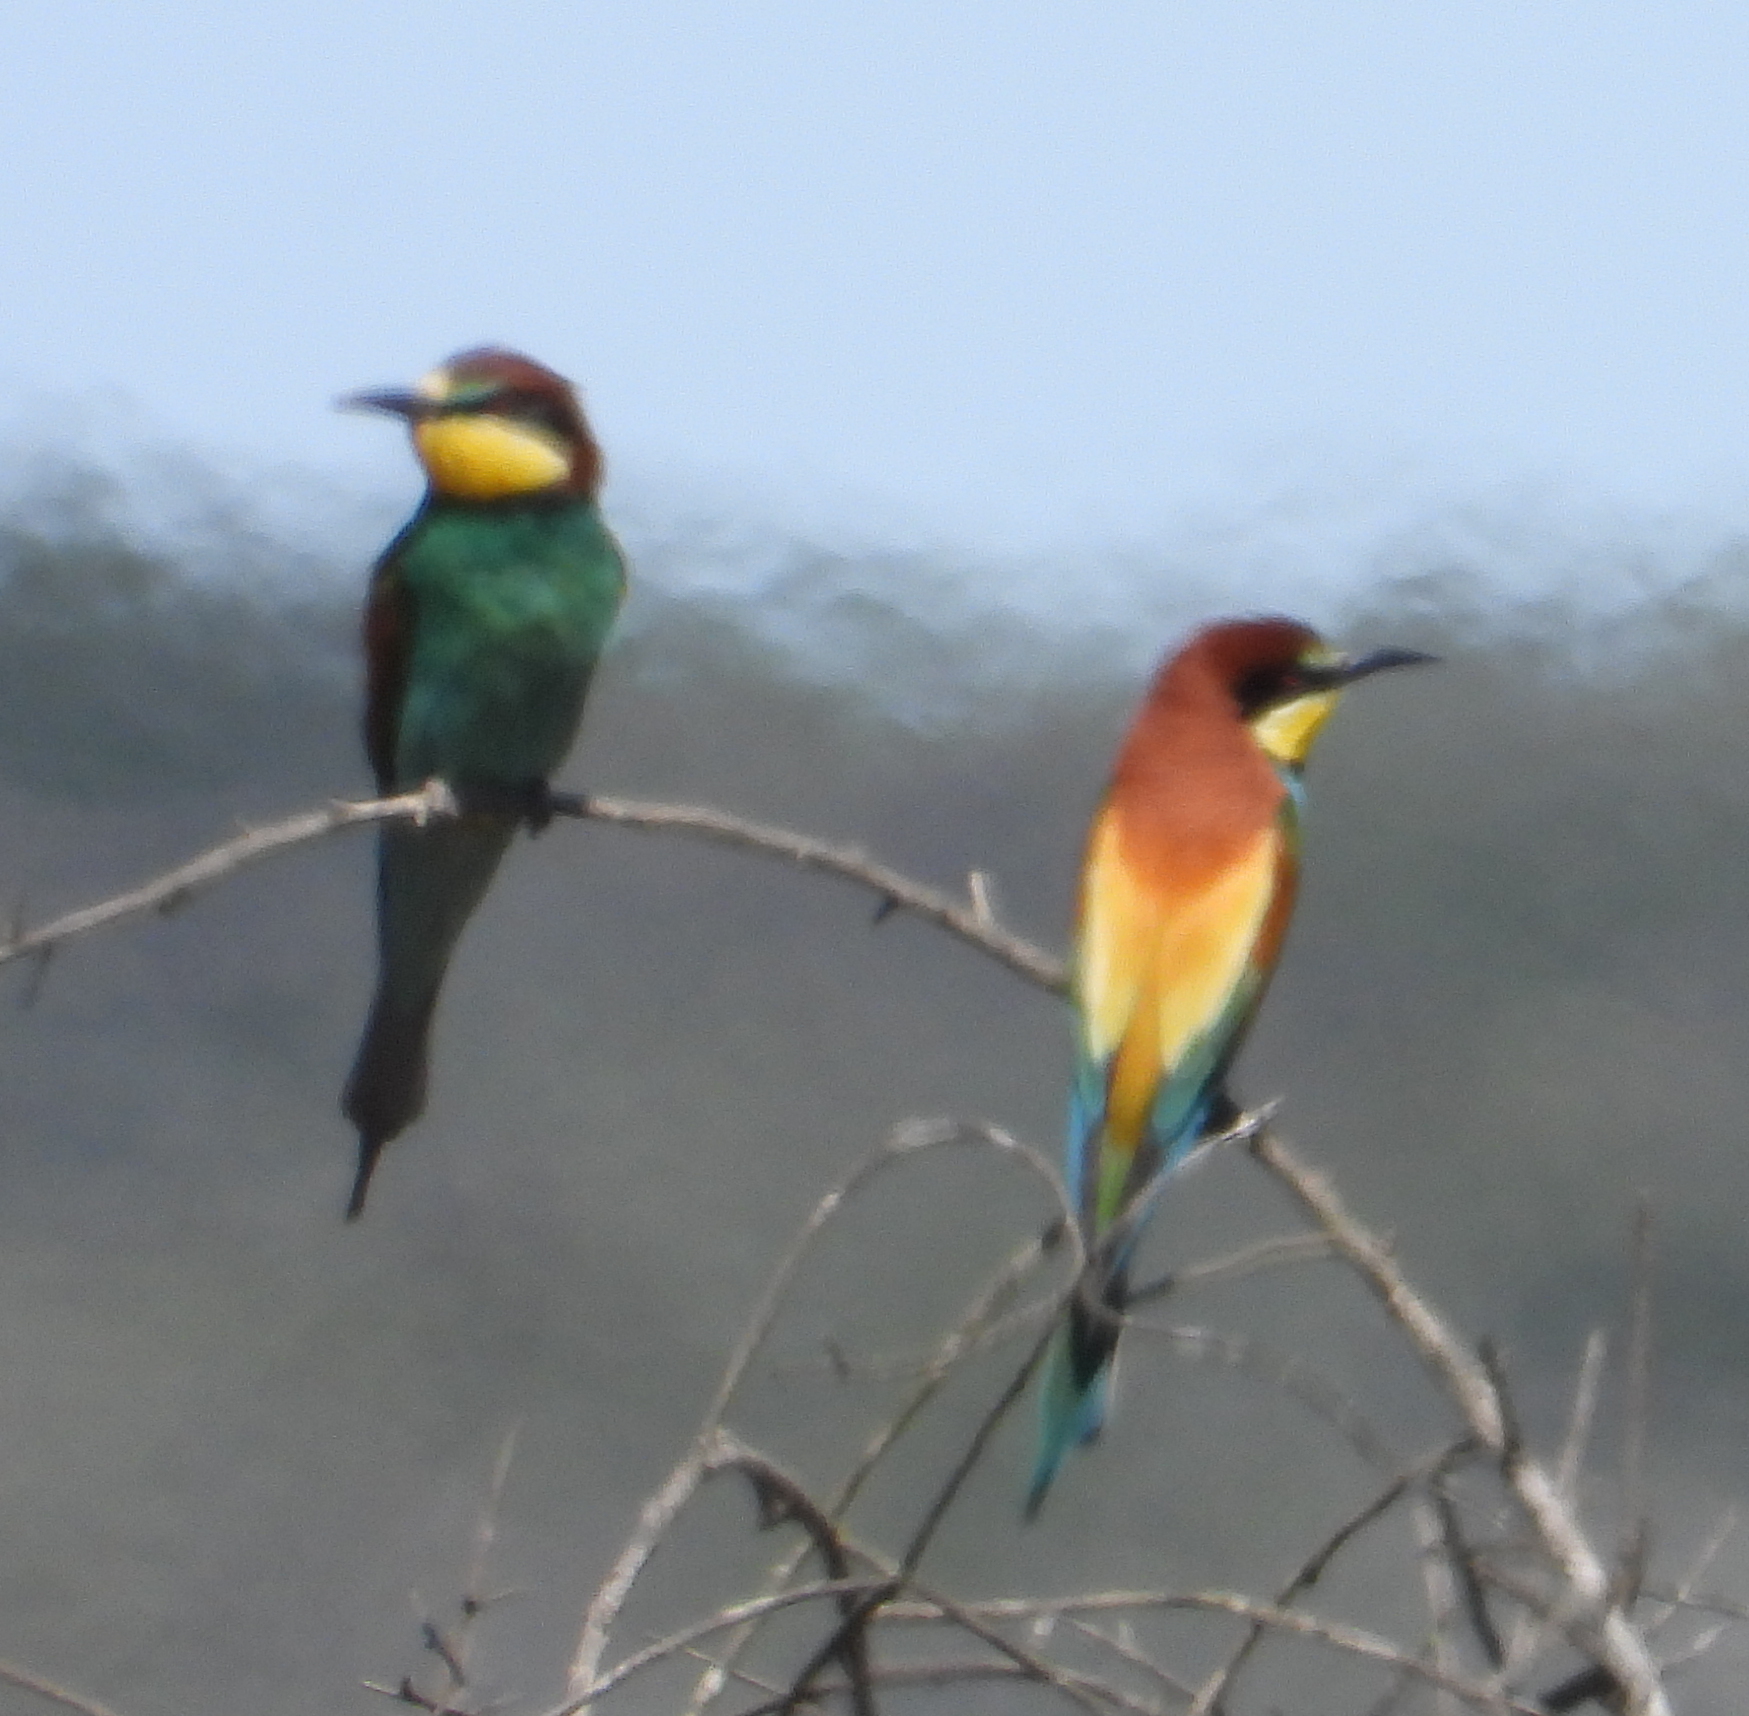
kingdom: Animalia
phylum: Chordata
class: Aves
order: Coraciiformes
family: Meropidae
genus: Merops
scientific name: Merops apiaster
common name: European bee-eater
